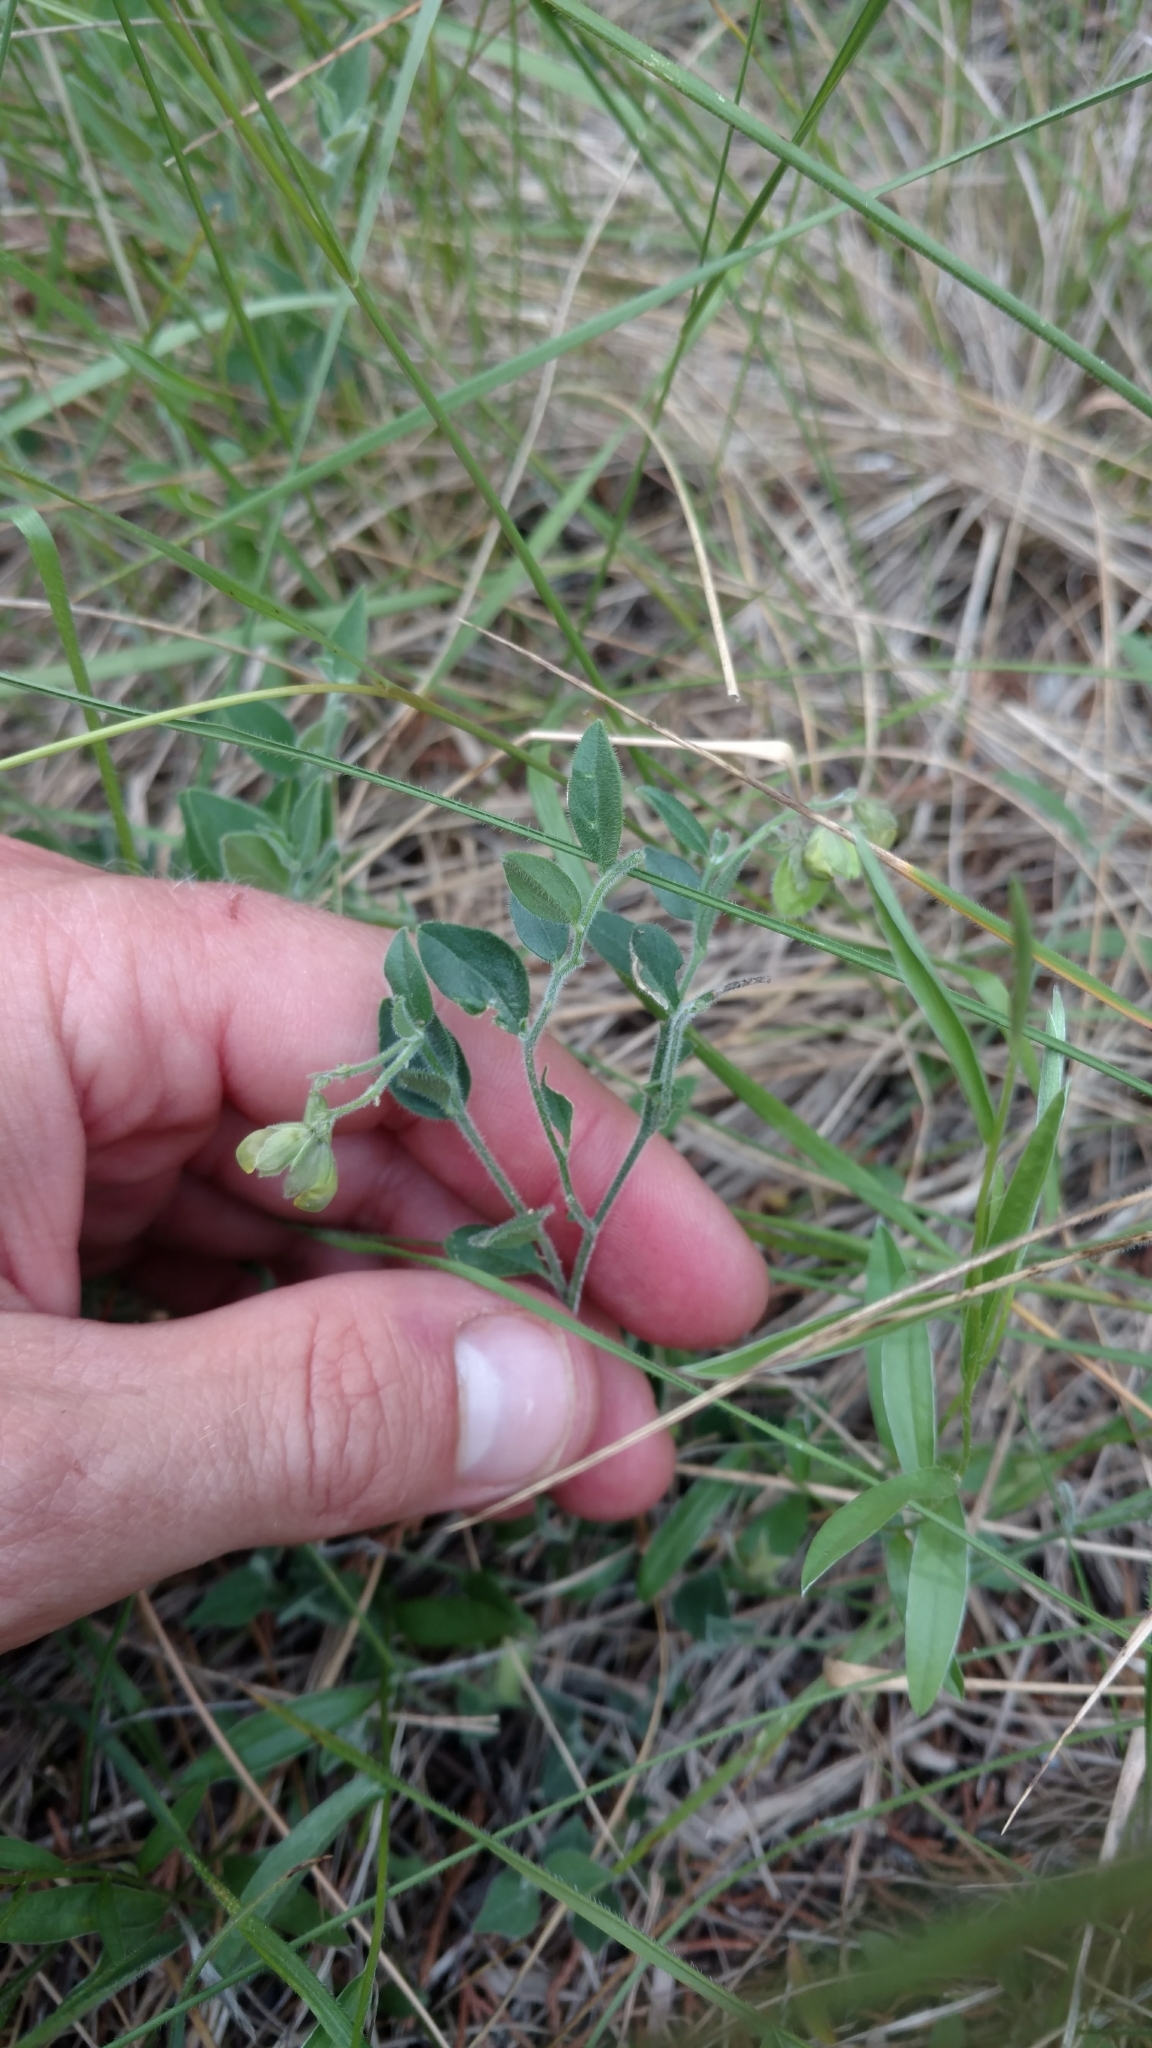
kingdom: Plantae
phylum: Tracheophyta
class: Magnoliopsida
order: Fabales
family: Polygalaceae
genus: Hebecarpa
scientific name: Hebecarpa ovatifolia
